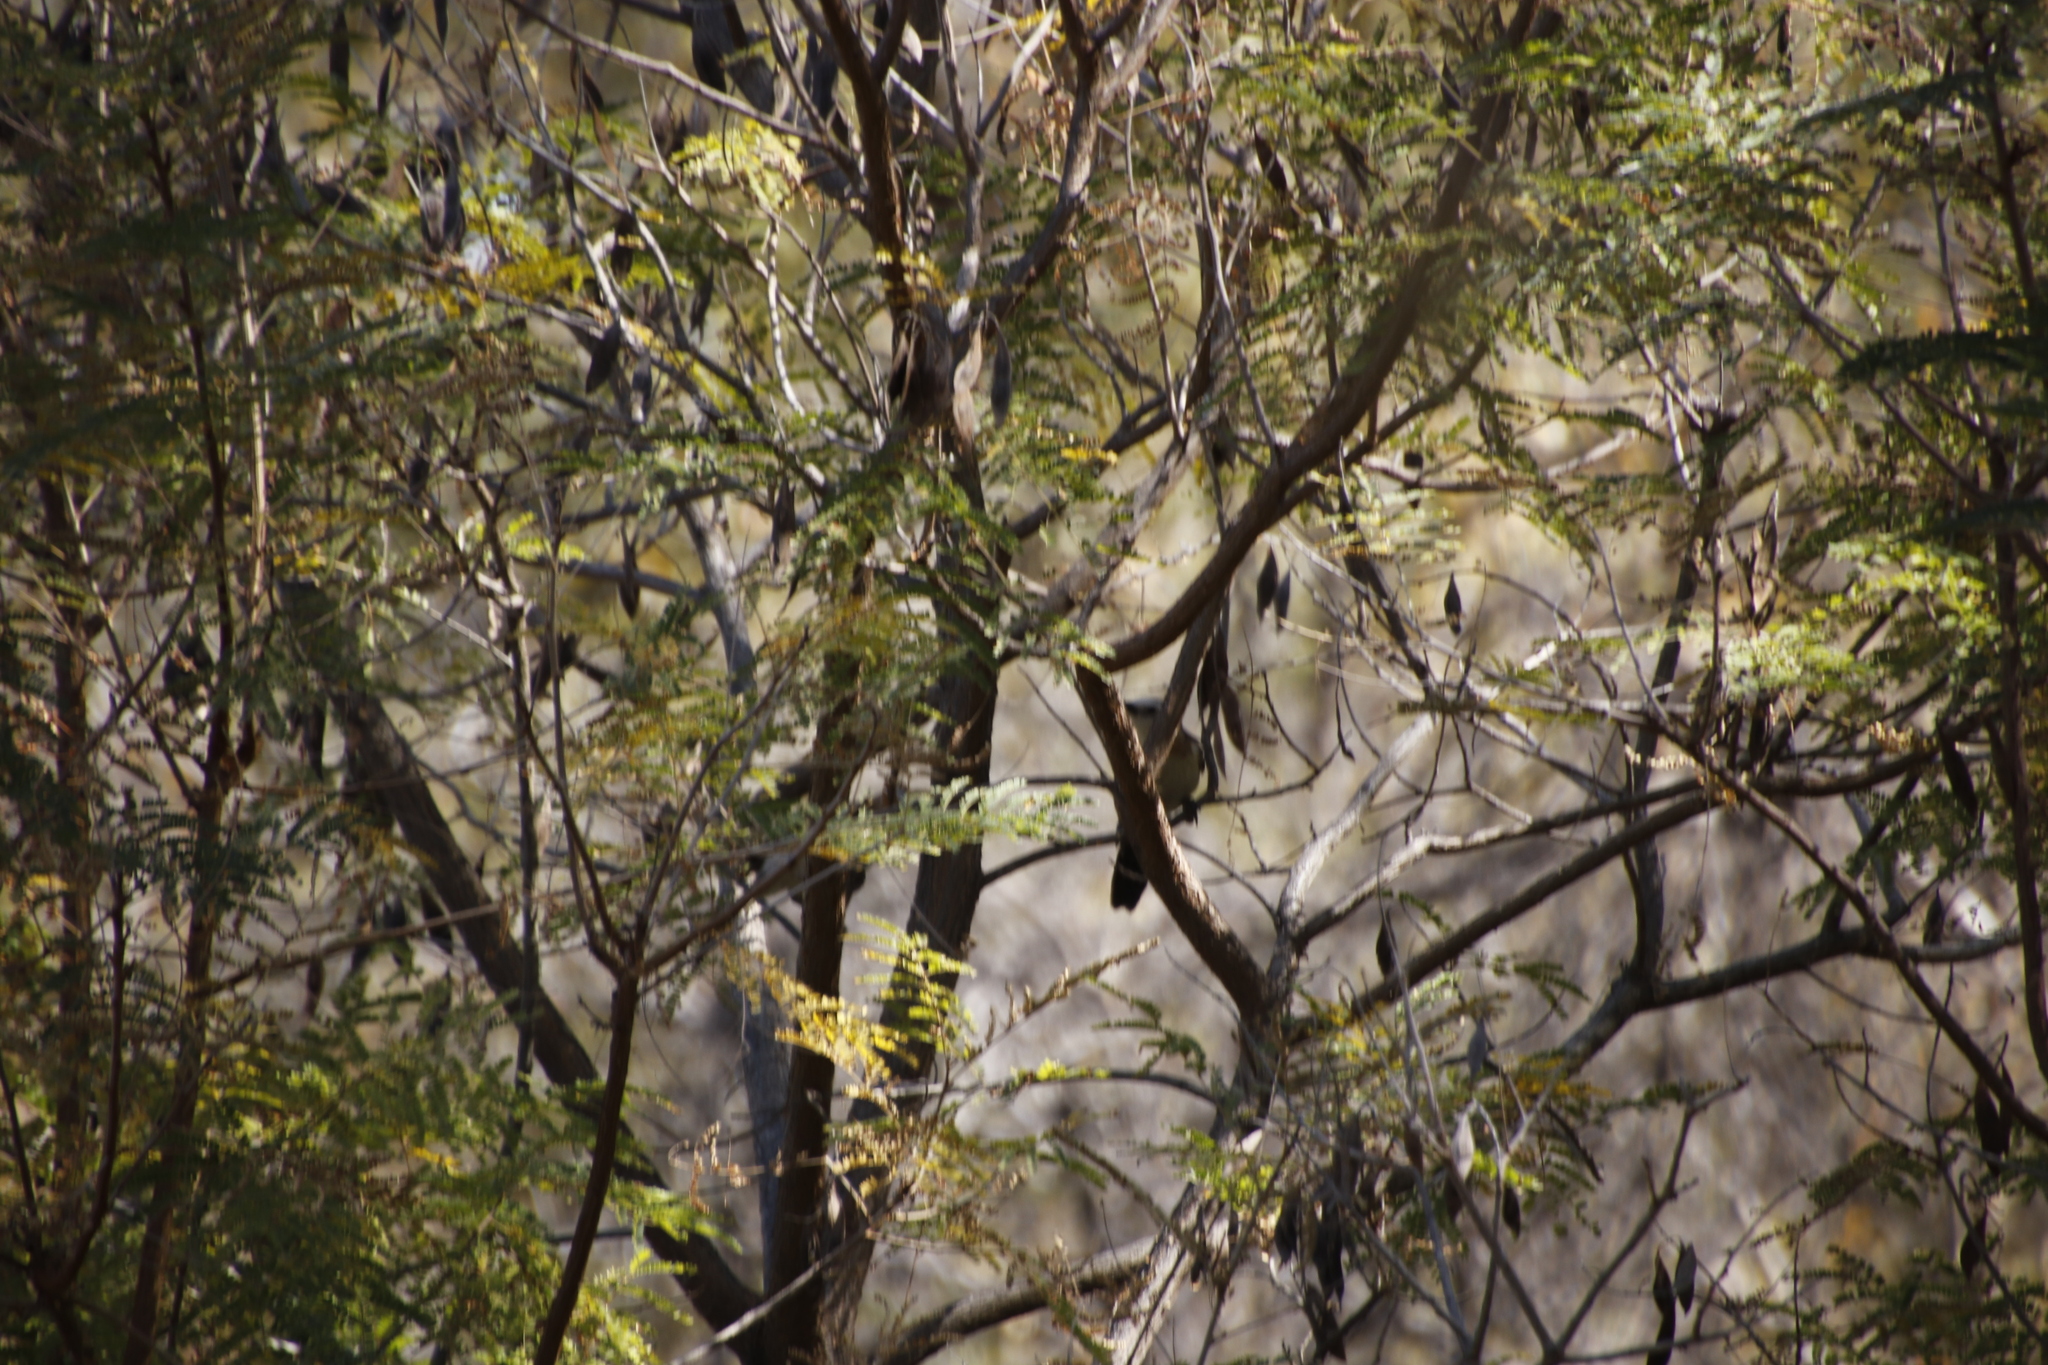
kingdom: Animalia
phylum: Chordata
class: Aves
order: Passeriformes
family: Leiothrichidae
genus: Turdoides
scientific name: Turdoides gymnogenys
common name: Bare-cheeked babbler
